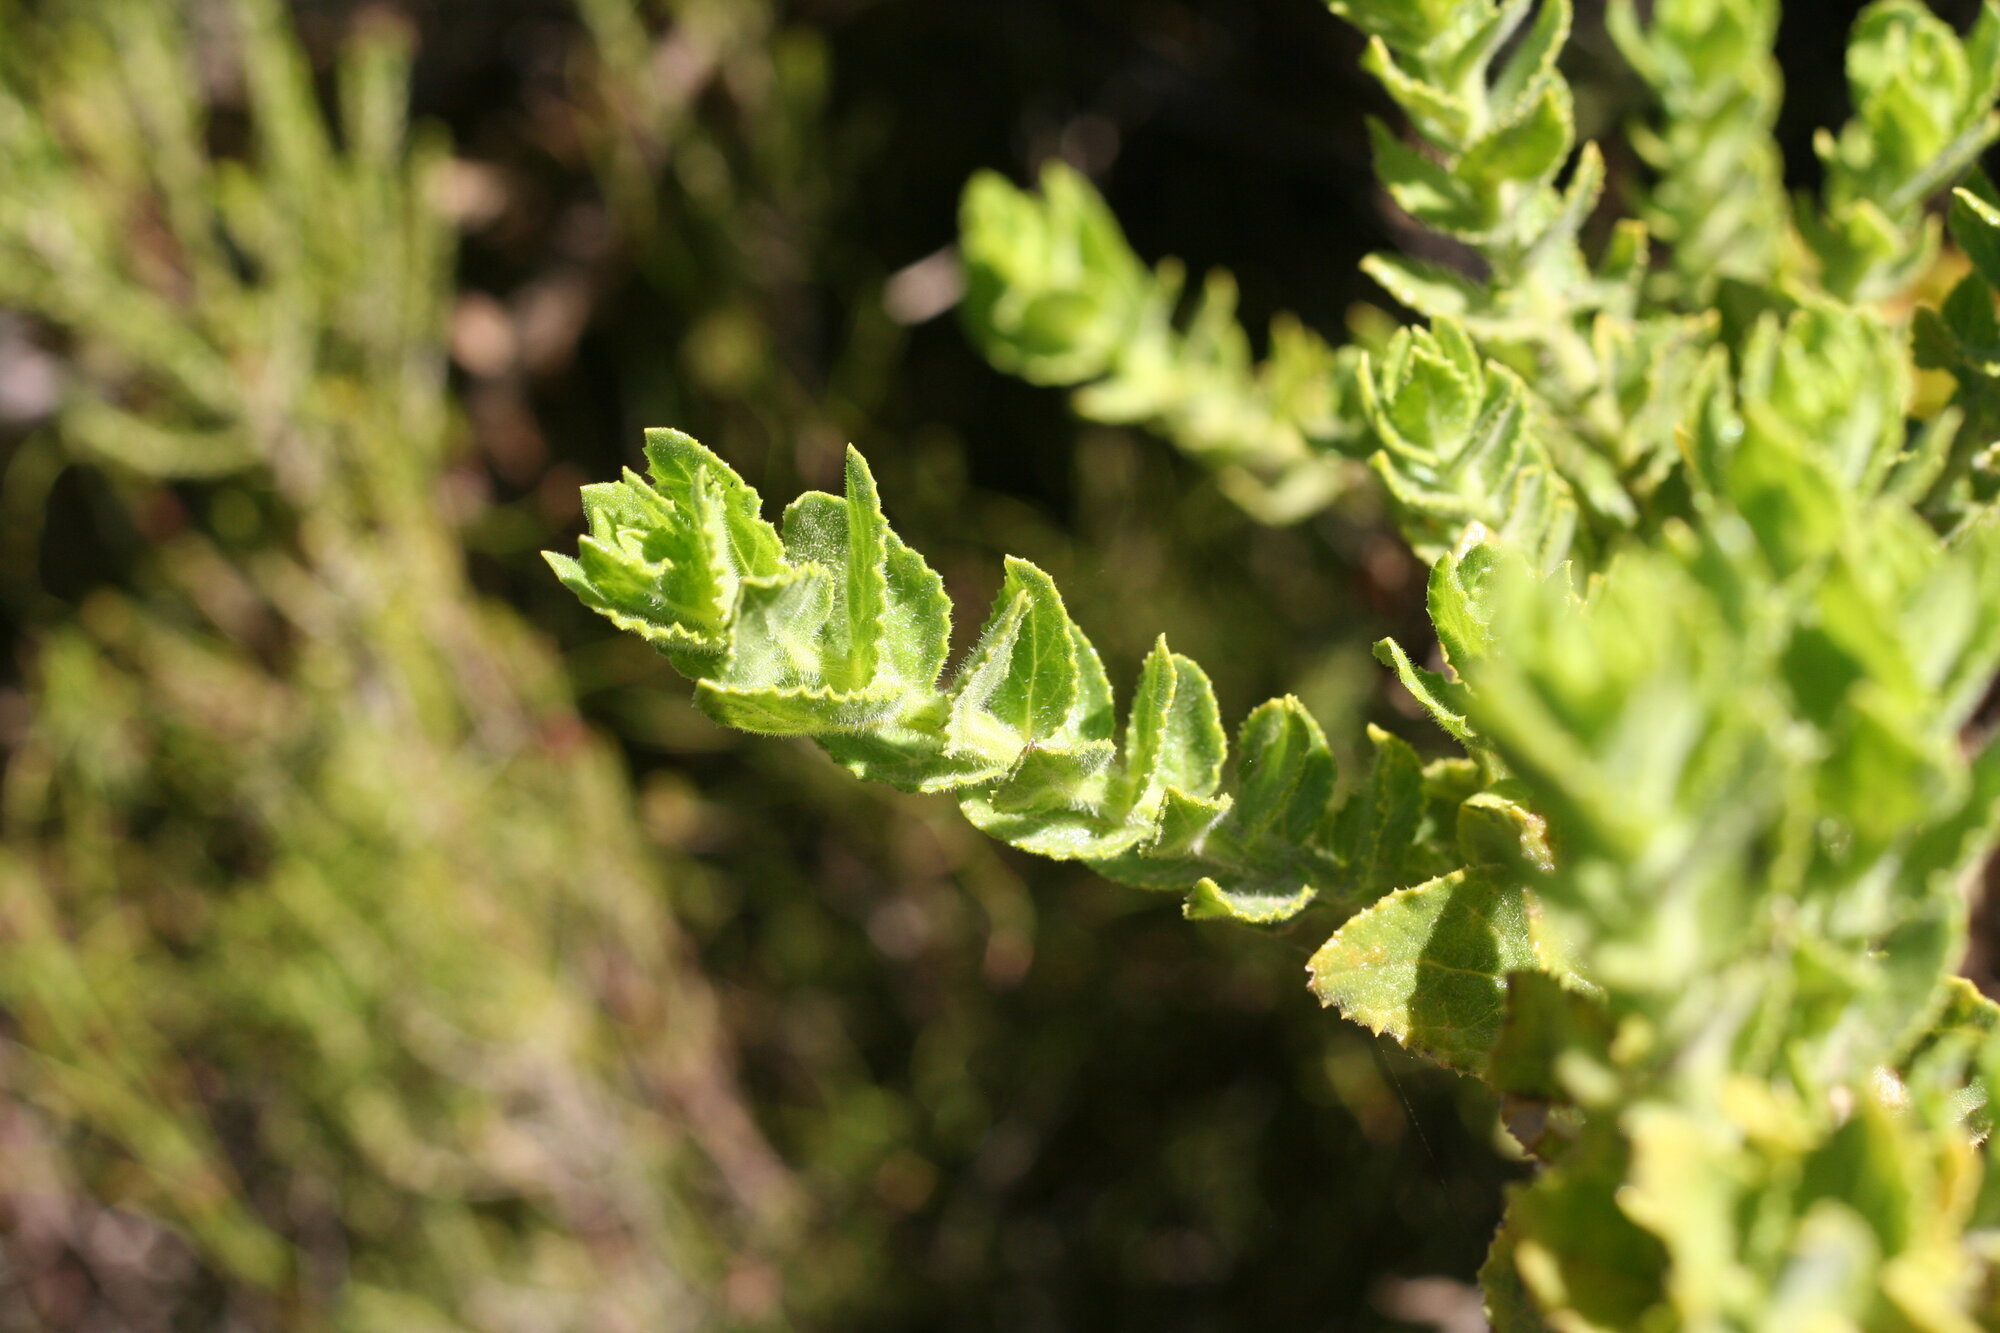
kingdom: Plantae
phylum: Tracheophyta
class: Magnoliopsida
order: Lamiales
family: Scrophulariaceae
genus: Oftia
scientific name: Oftia africana
